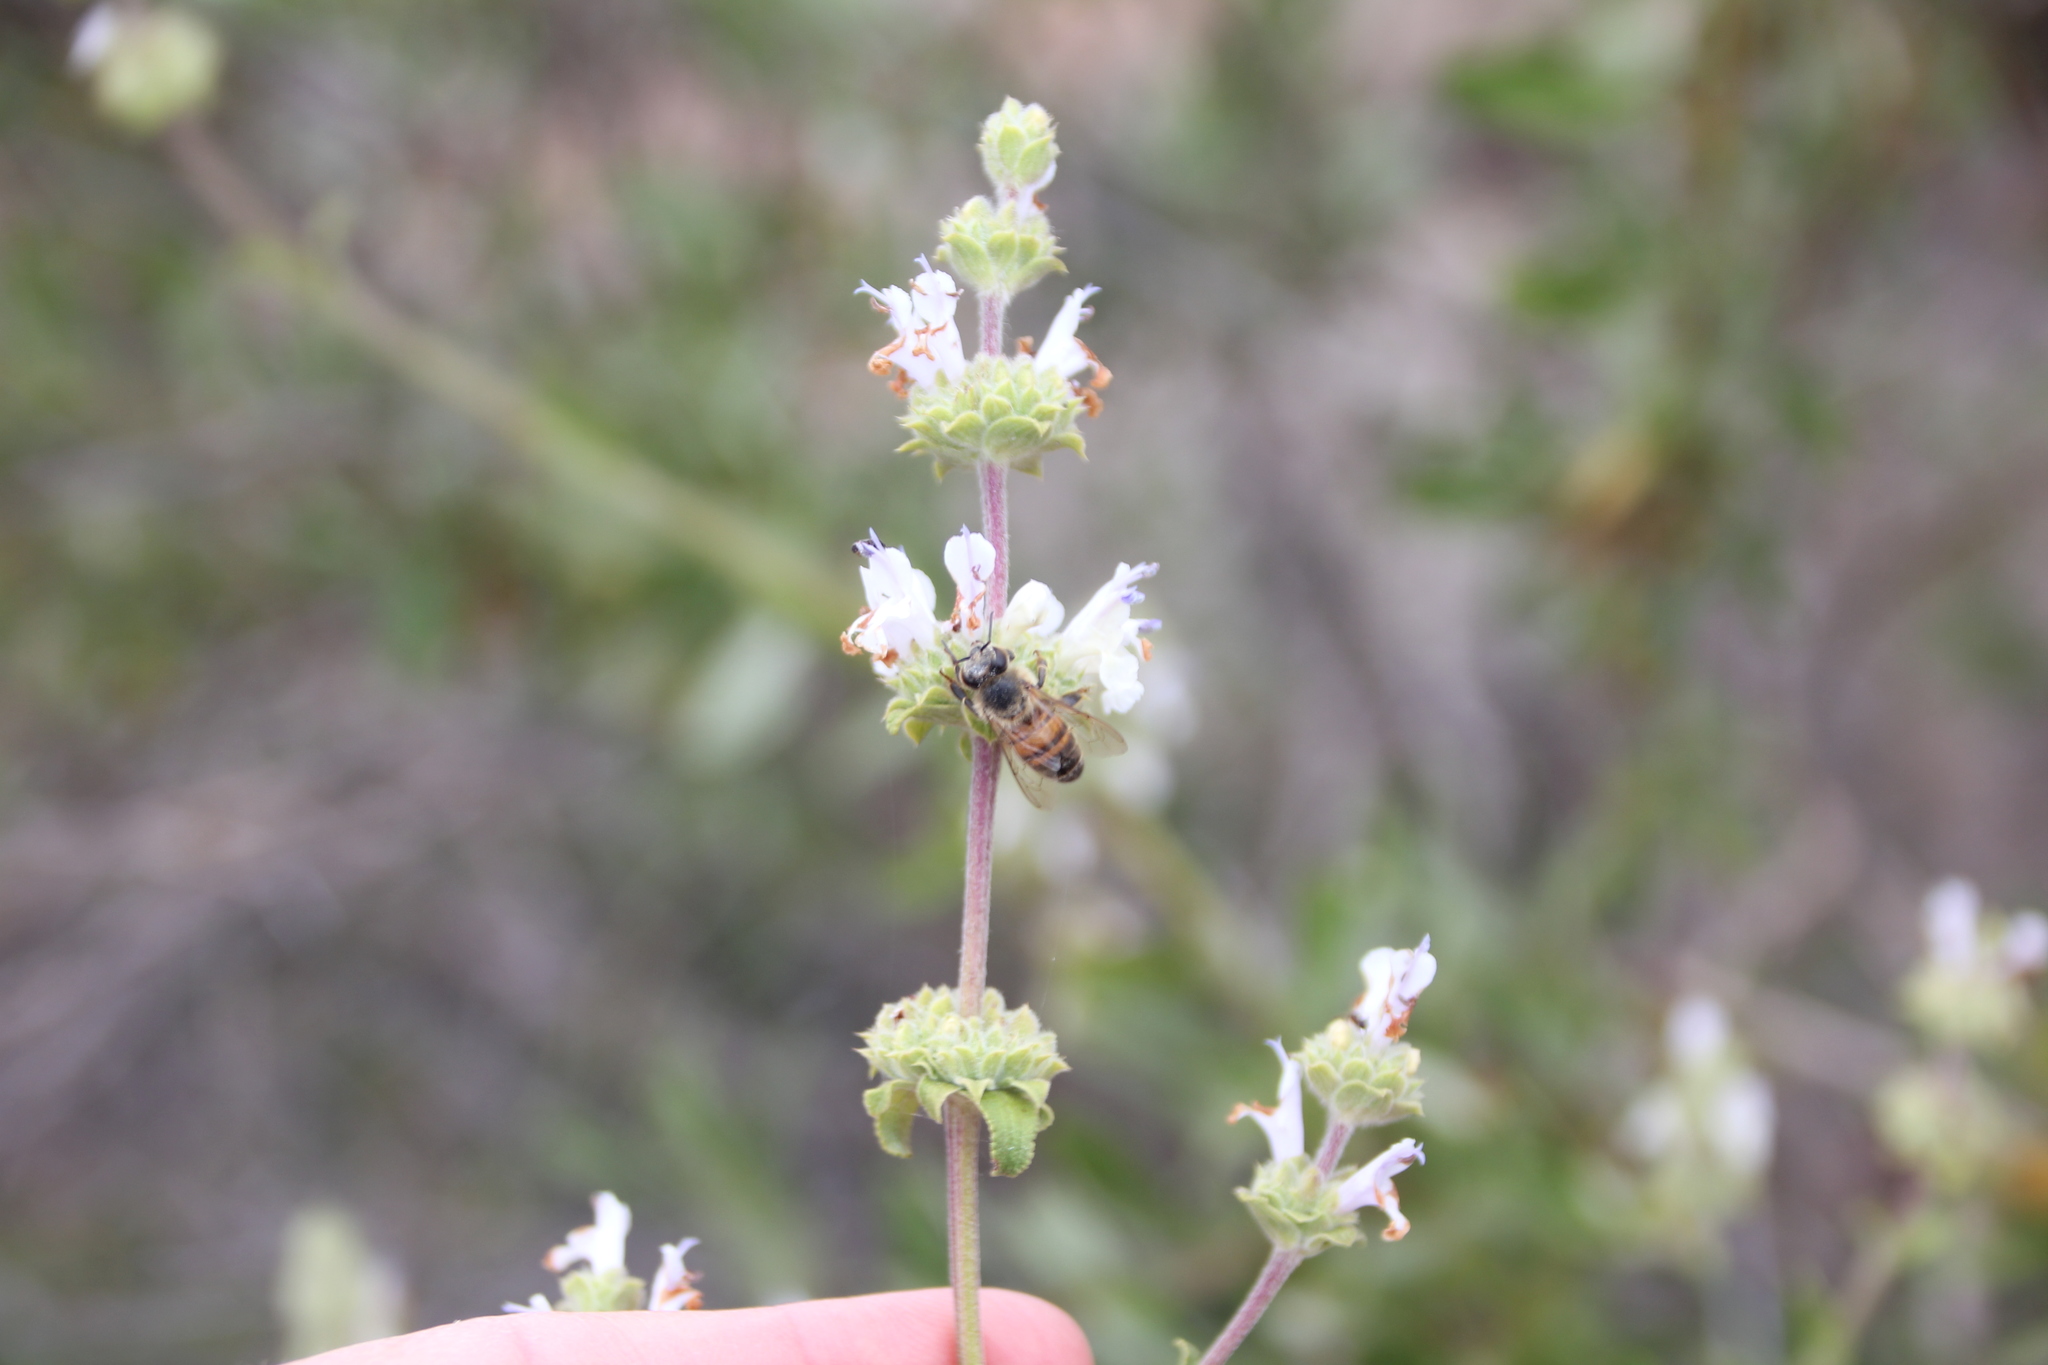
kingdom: Plantae
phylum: Tracheophyta
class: Magnoliopsida
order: Lamiales
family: Lamiaceae
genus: Salvia
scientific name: Salvia mellifera
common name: Black sage
